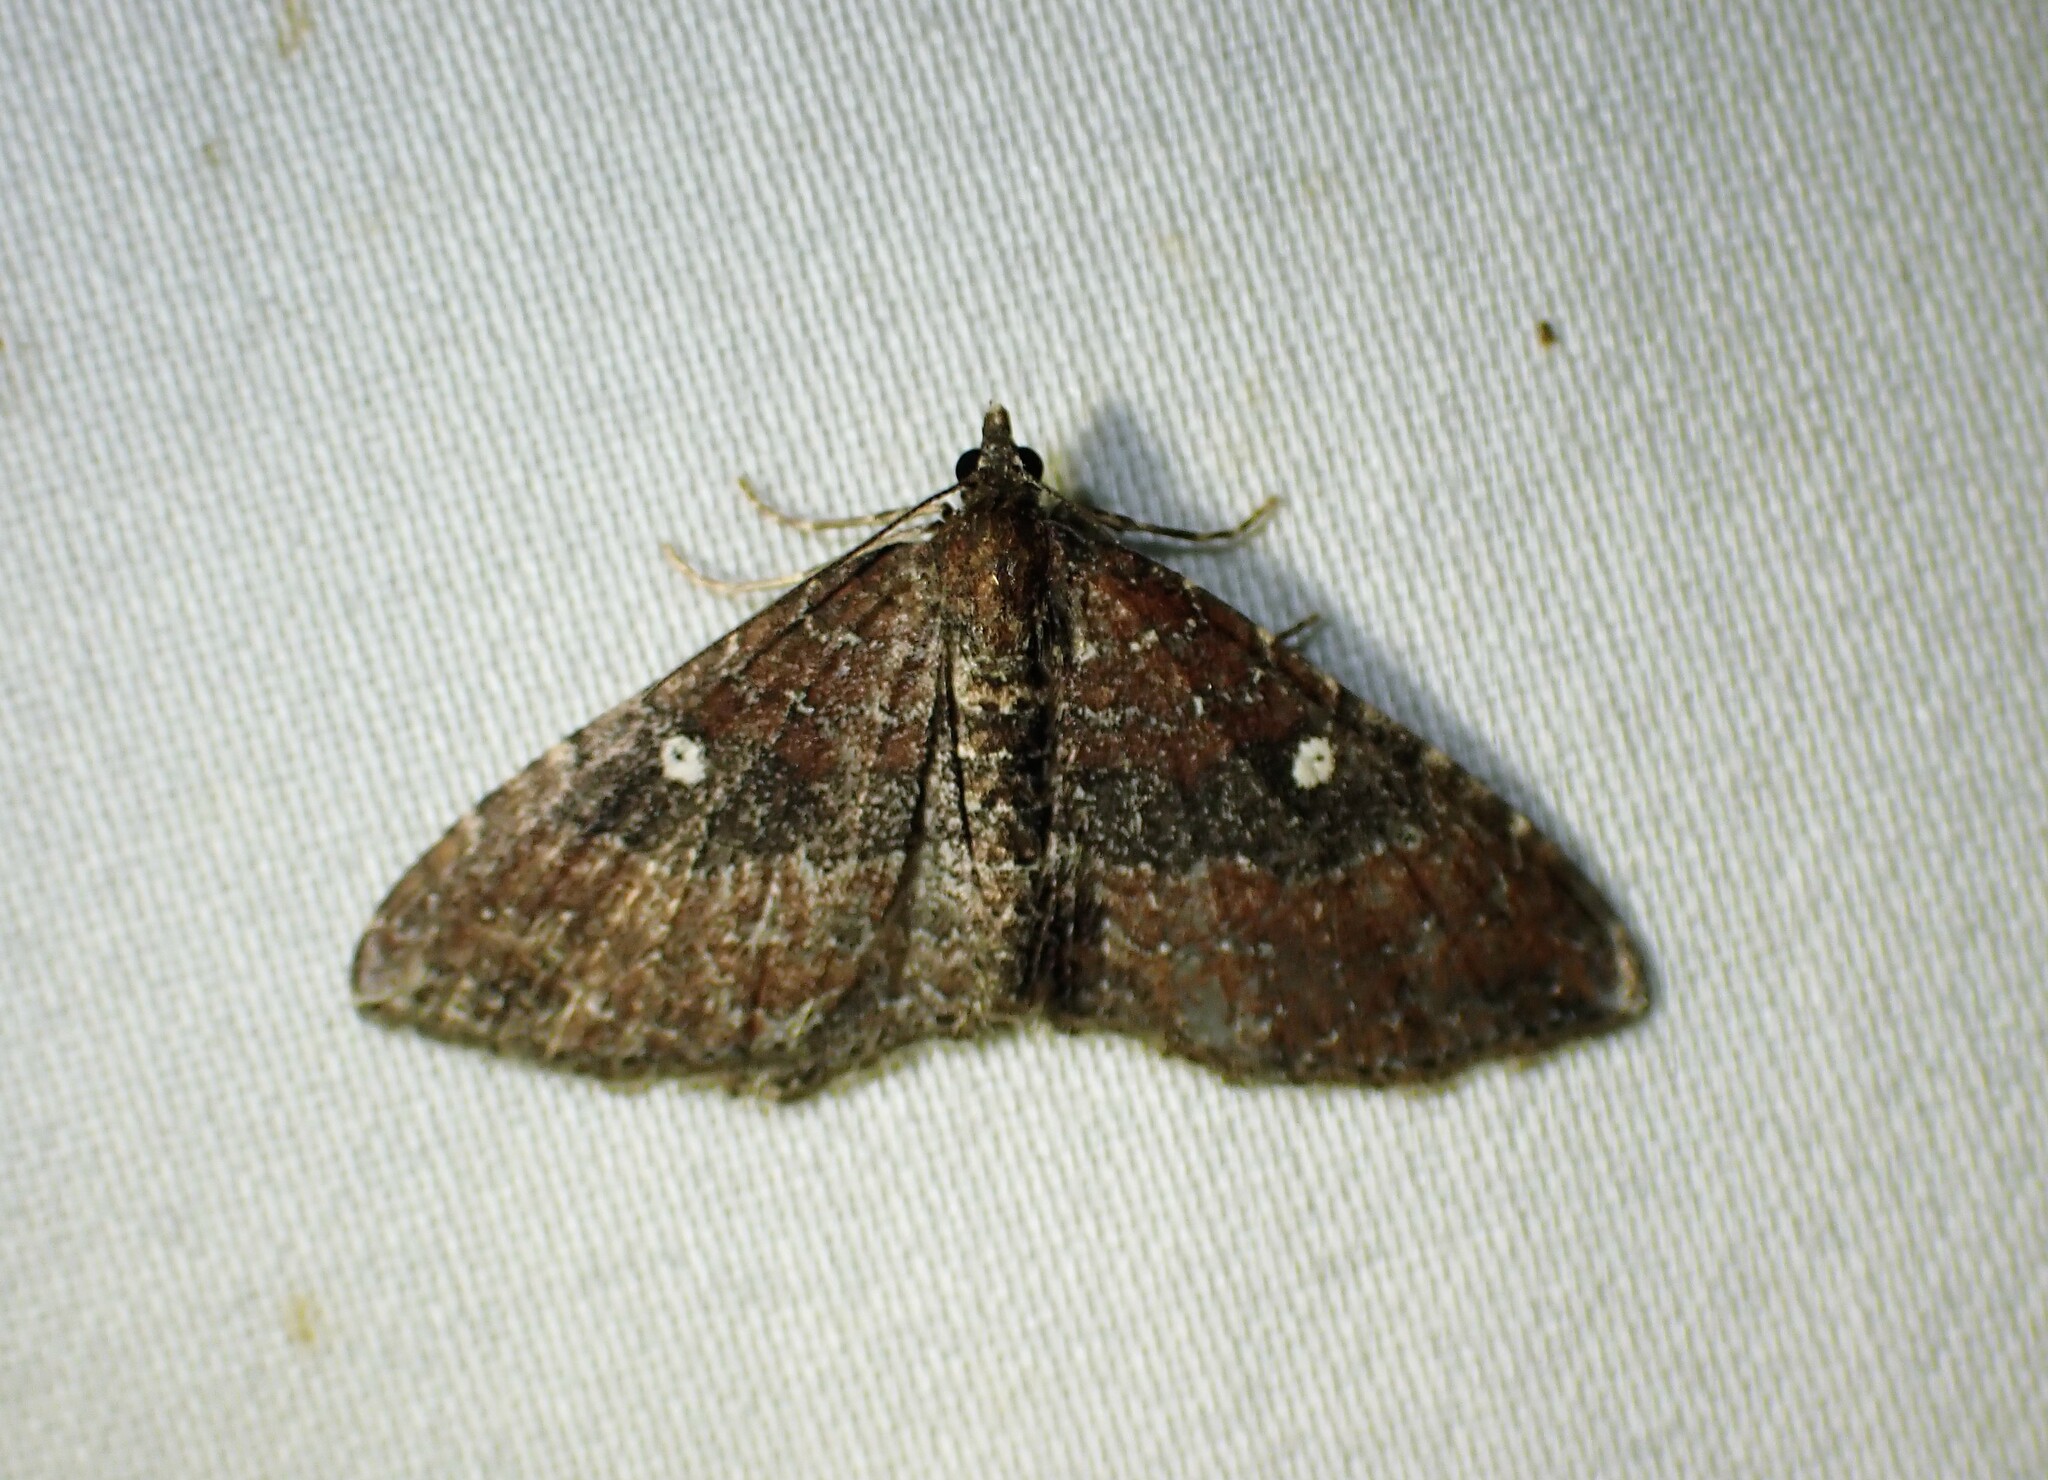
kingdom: Animalia
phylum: Arthropoda
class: Insecta
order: Lepidoptera
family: Geometridae
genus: Orthonama
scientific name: Orthonama obstipata
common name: The gem
